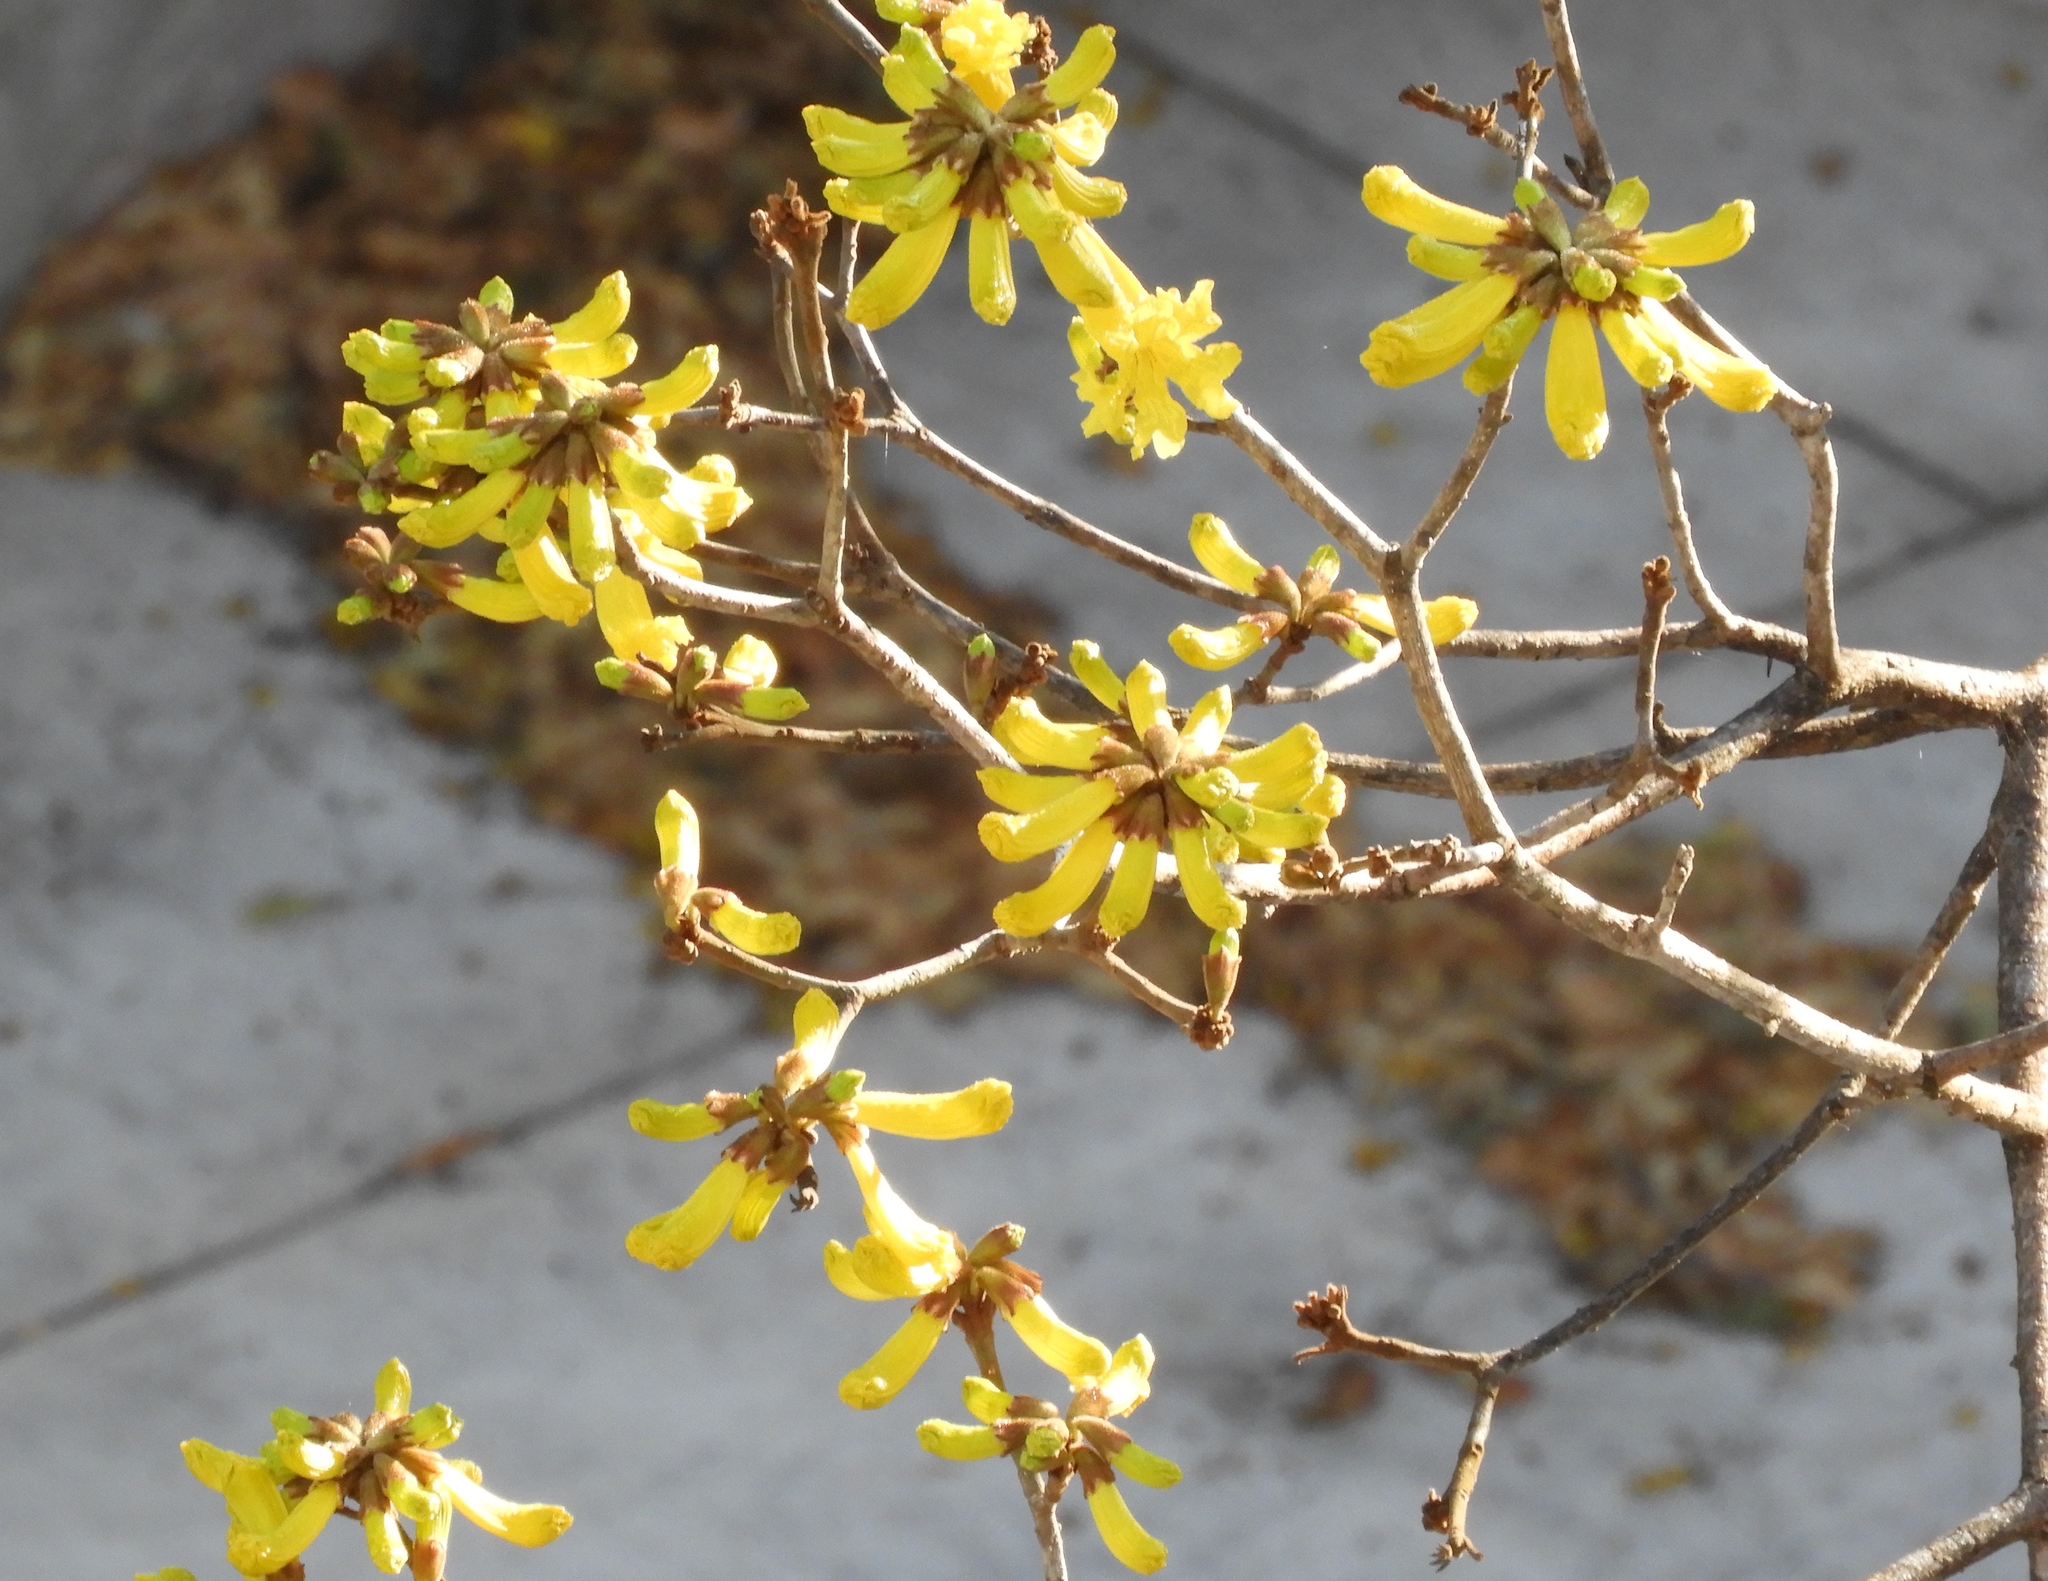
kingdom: Plantae
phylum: Tracheophyta
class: Magnoliopsida
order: Lamiales
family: Bignoniaceae
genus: Handroanthus
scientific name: Handroanthus chrysanthus
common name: Trumpet trees
